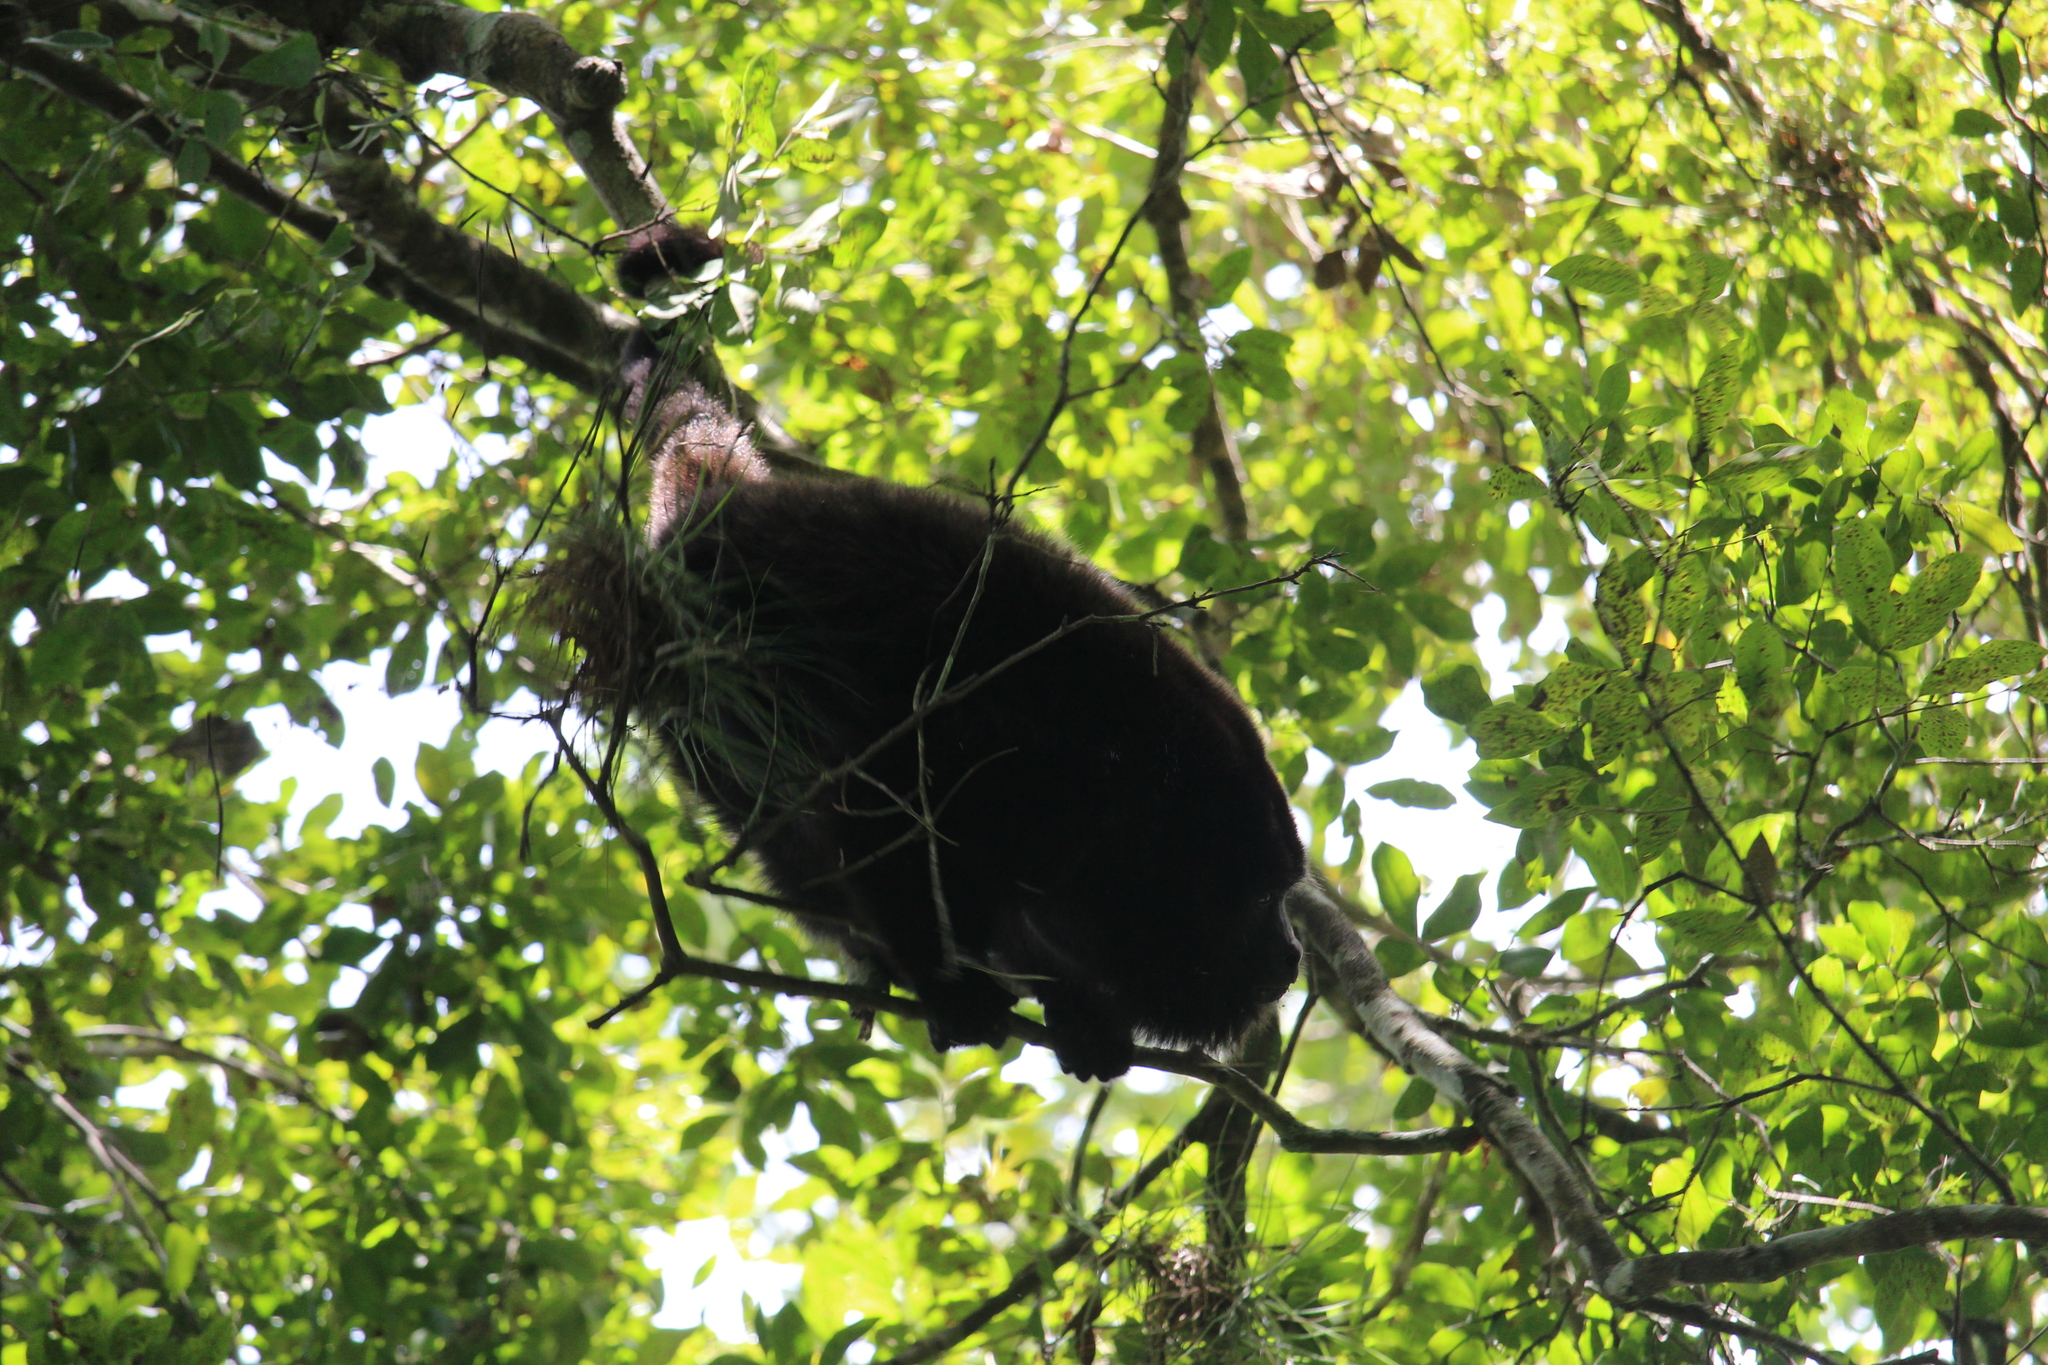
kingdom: Animalia
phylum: Chordata
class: Mammalia
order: Primates
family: Atelidae
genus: Alouatta
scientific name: Alouatta pigra
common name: Guatemalan black howler
